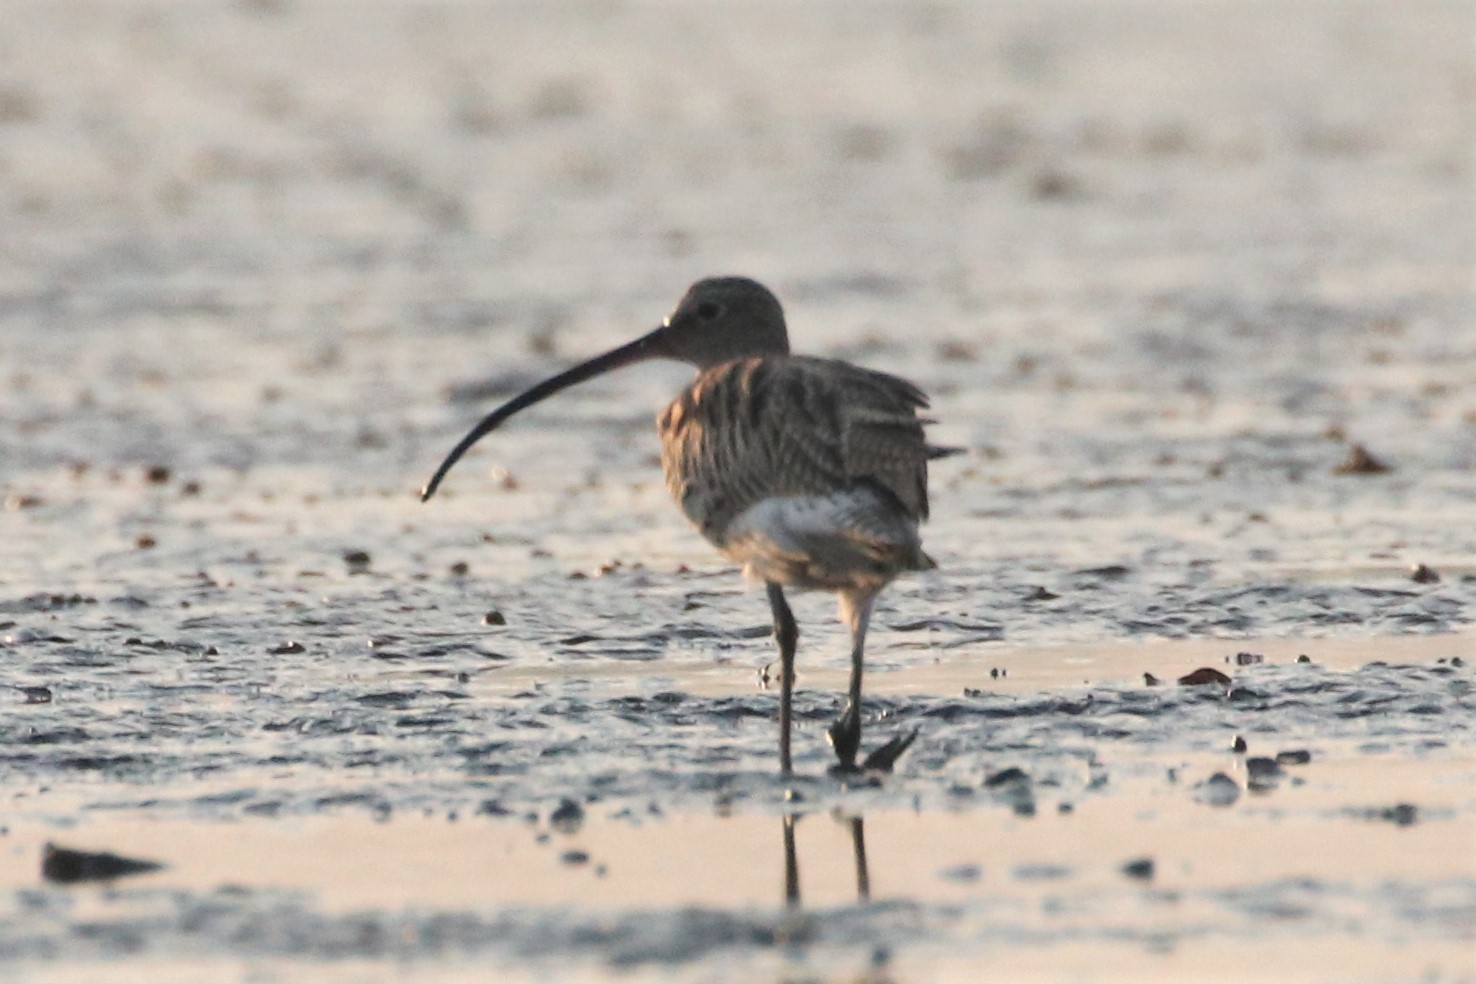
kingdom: Animalia
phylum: Chordata
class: Aves
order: Charadriiformes
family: Scolopacidae
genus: Numenius
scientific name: Numenius arquata
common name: Eurasian curlew
